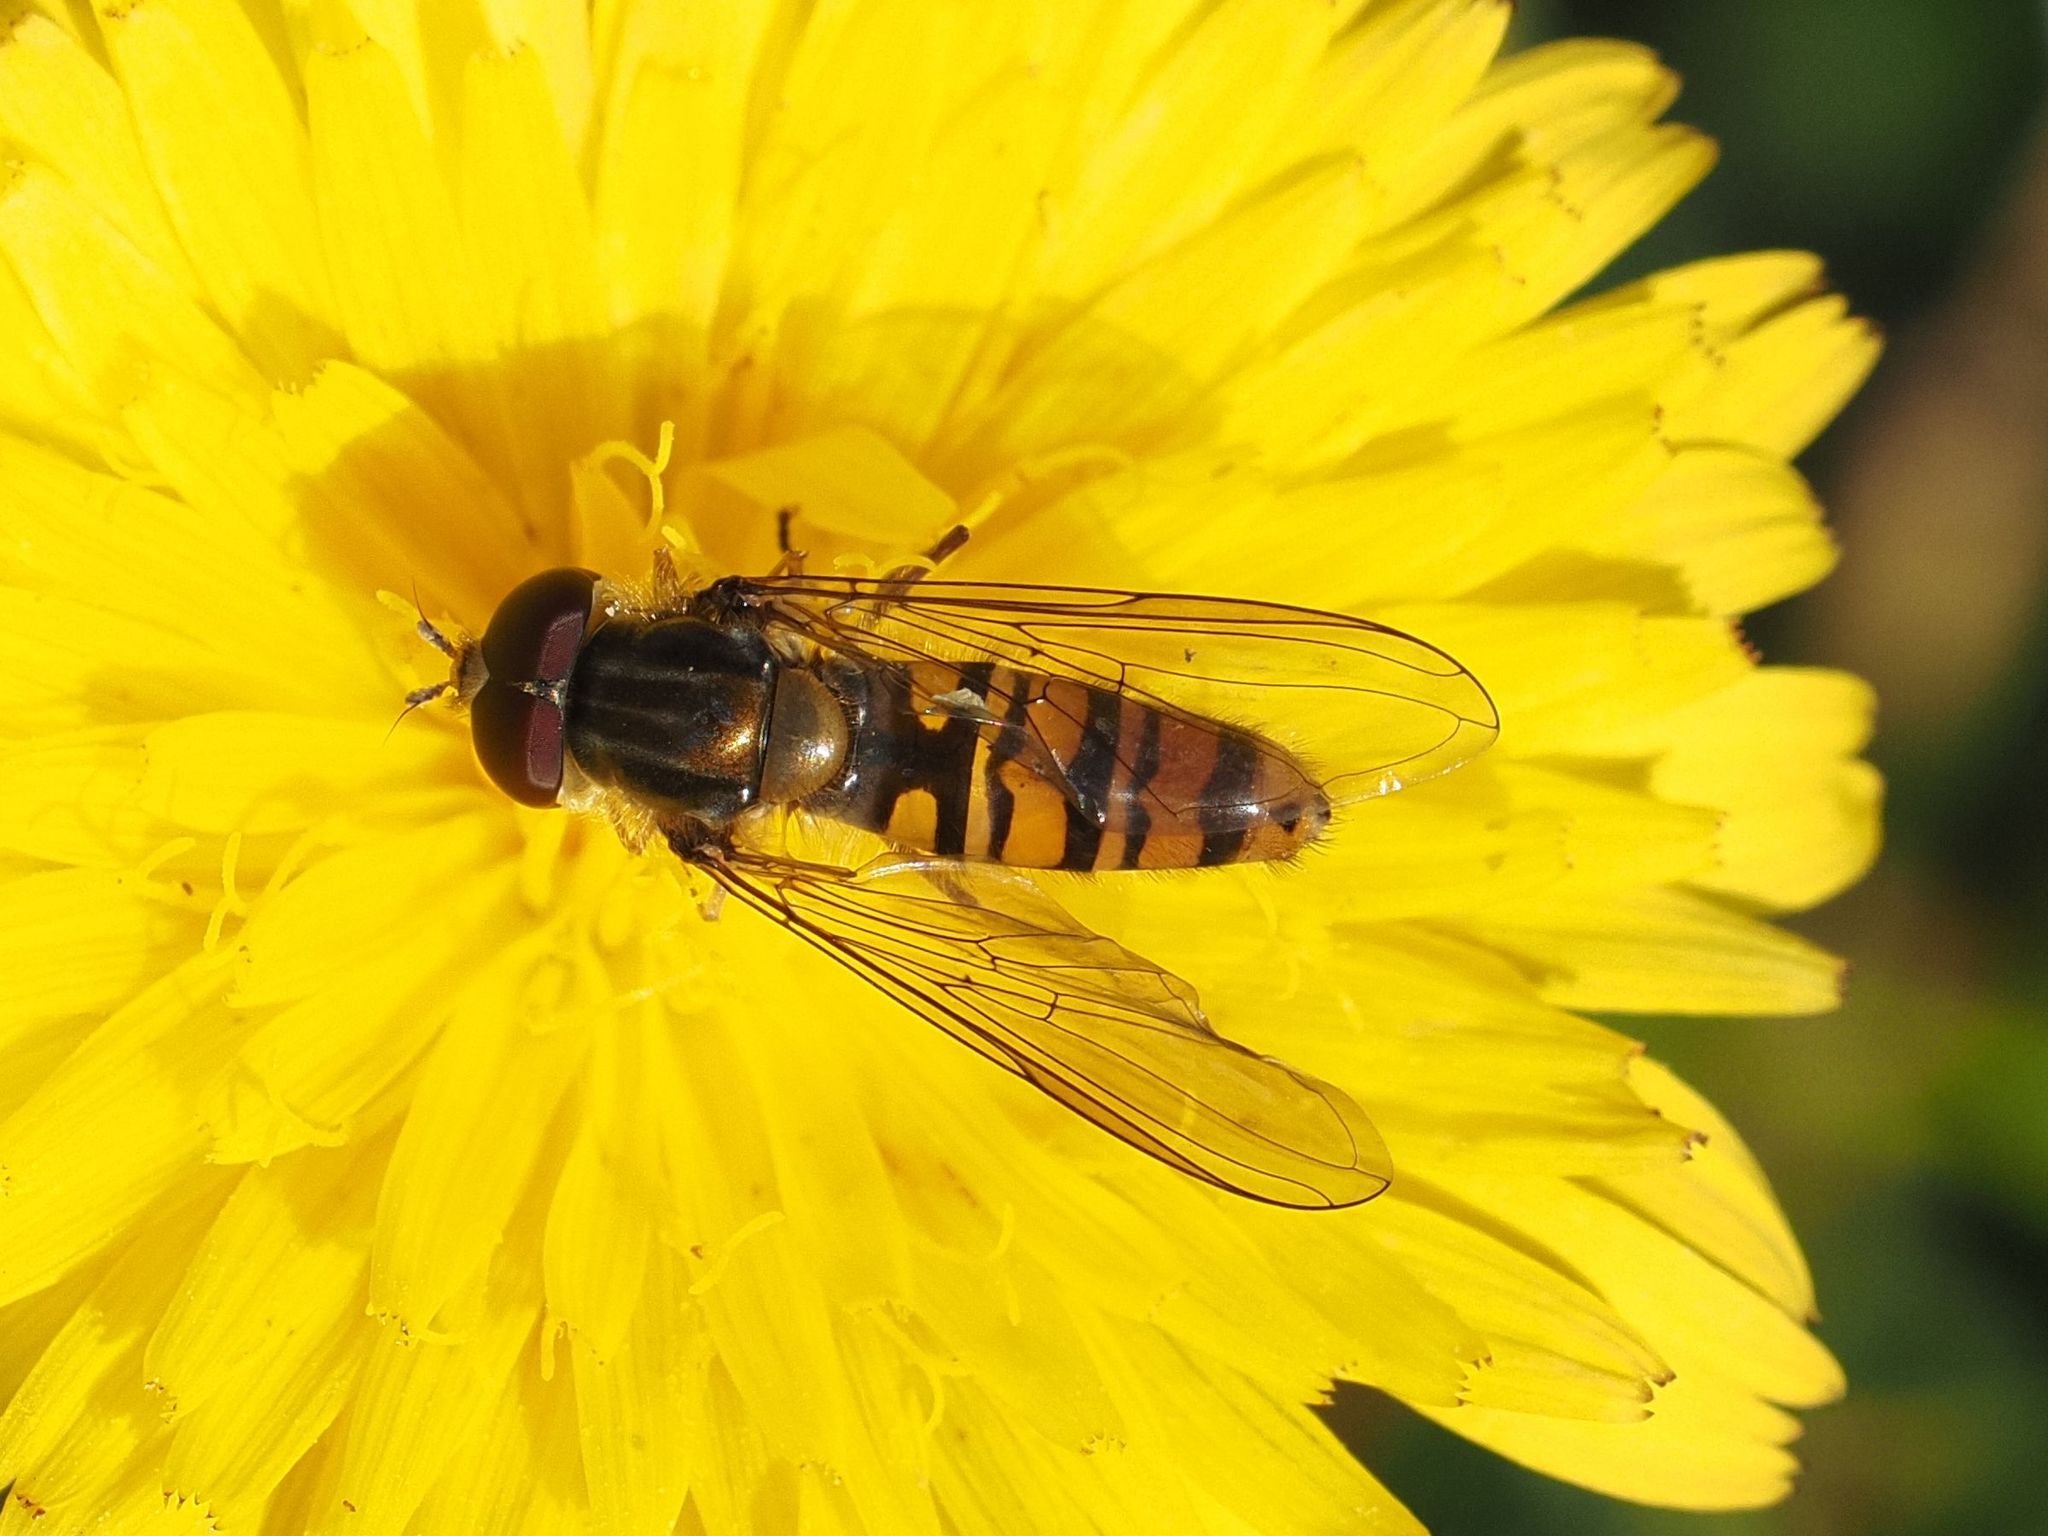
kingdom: Animalia
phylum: Arthropoda
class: Insecta
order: Diptera
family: Syrphidae
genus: Episyrphus
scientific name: Episyrphus balteatus
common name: Marmalade hoverfly
